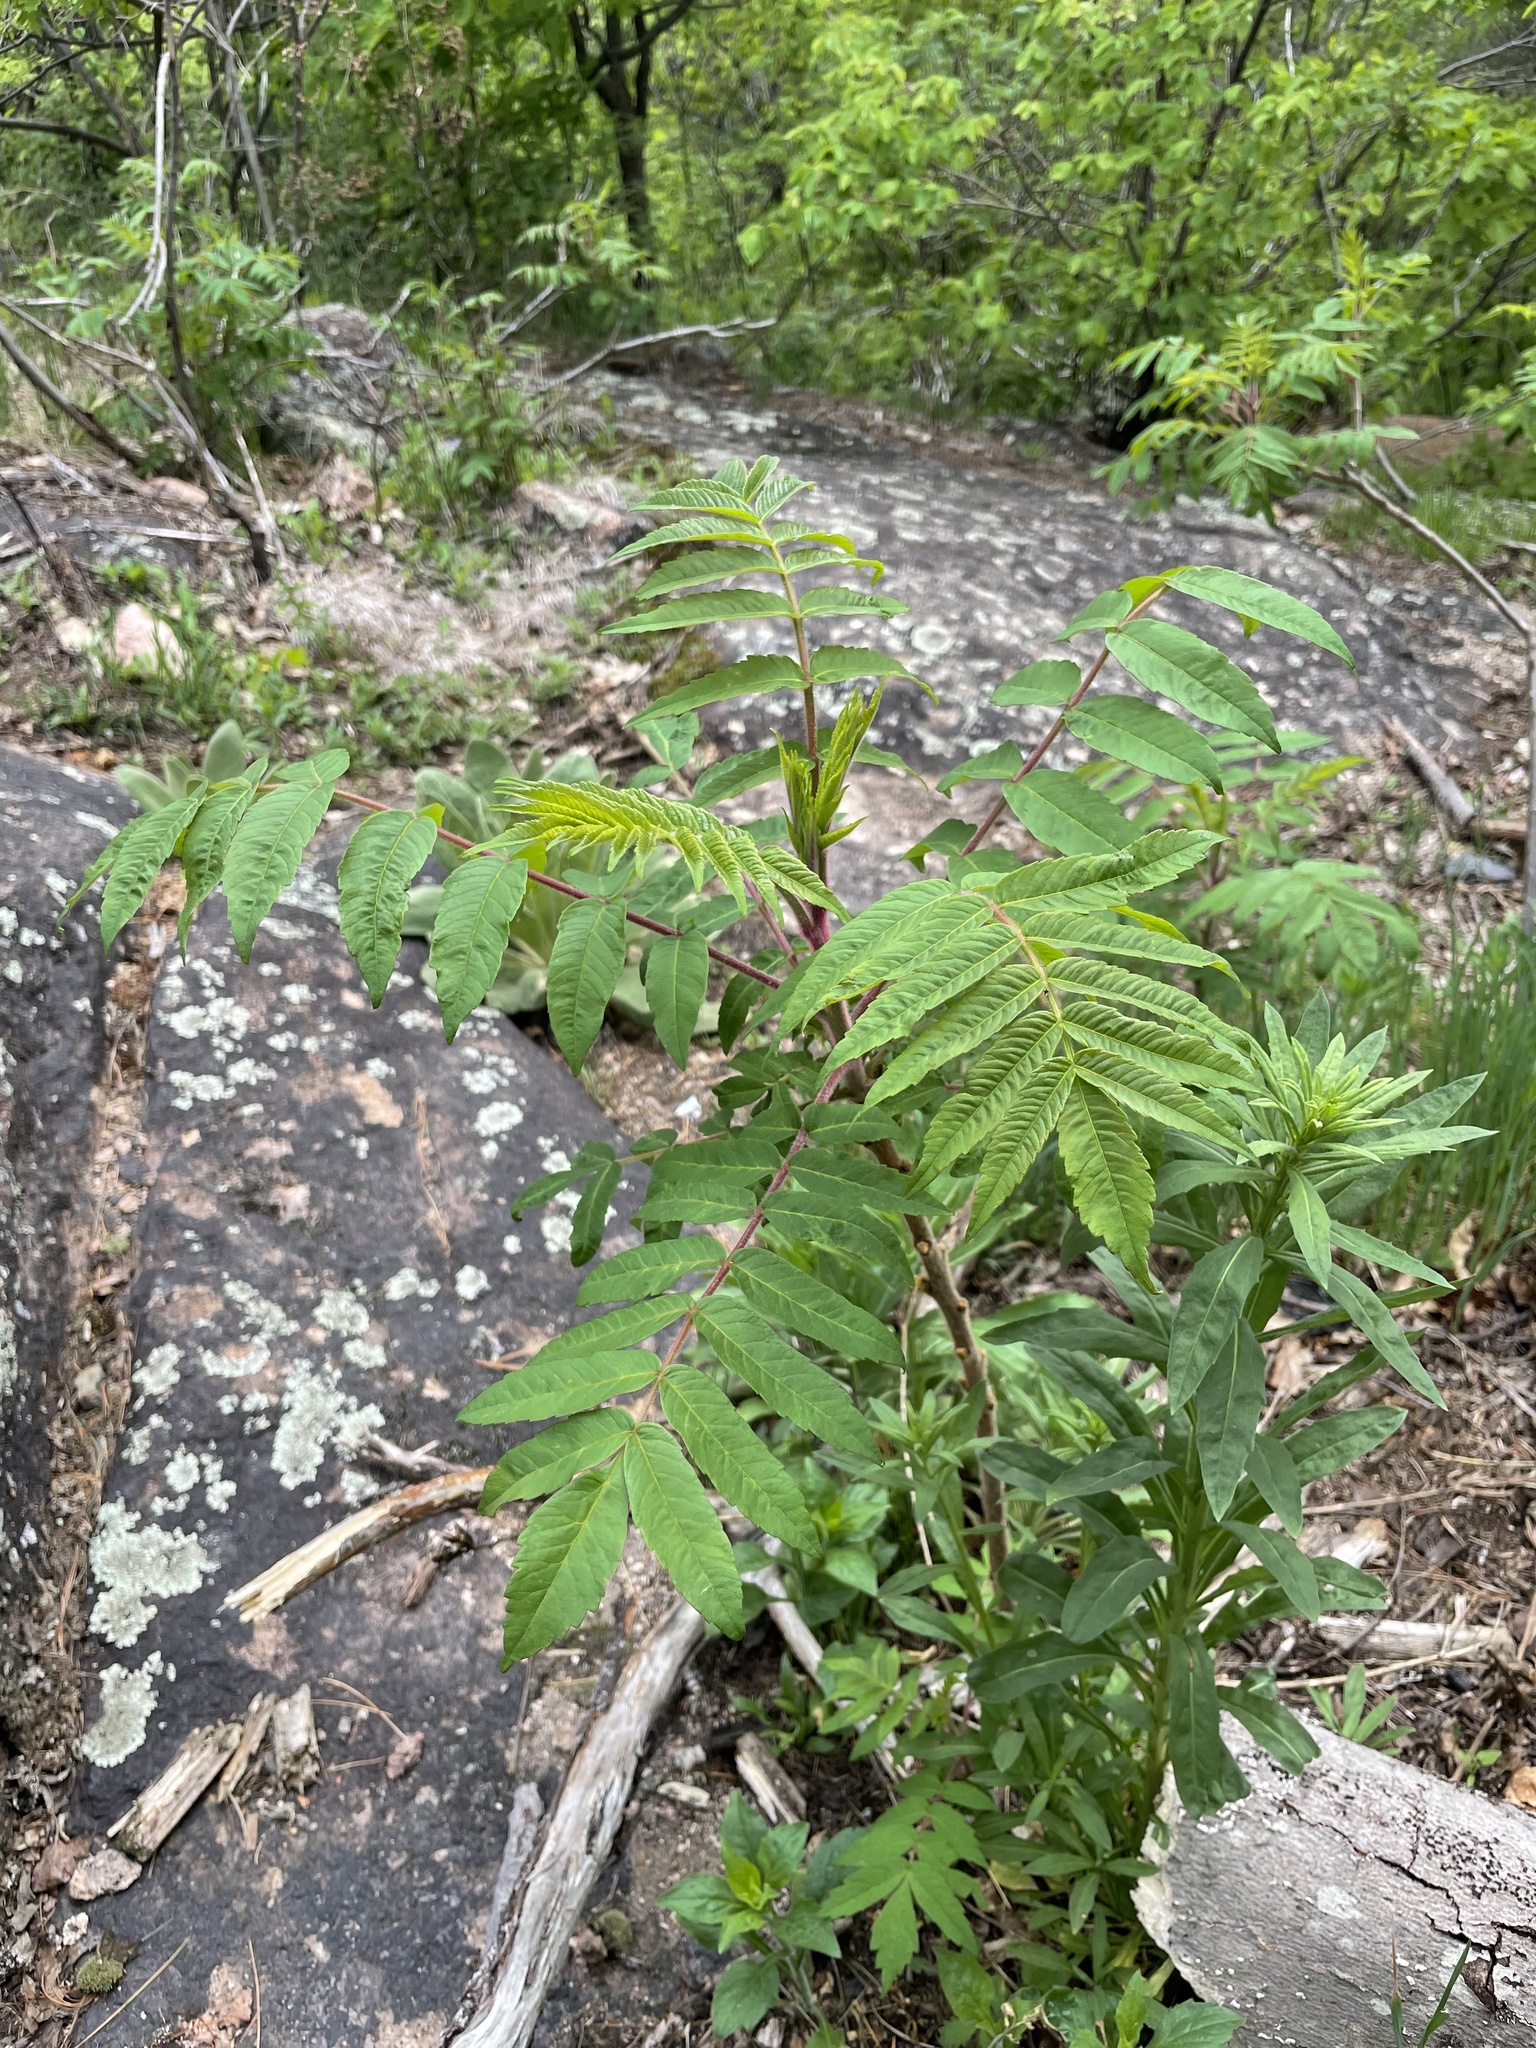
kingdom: Plantae
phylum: Tracheophyta
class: Magnoliopsida
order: Sapindales
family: Anacardiaceae
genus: Rhus
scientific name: Rhus typhina
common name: Staghorn sumac
